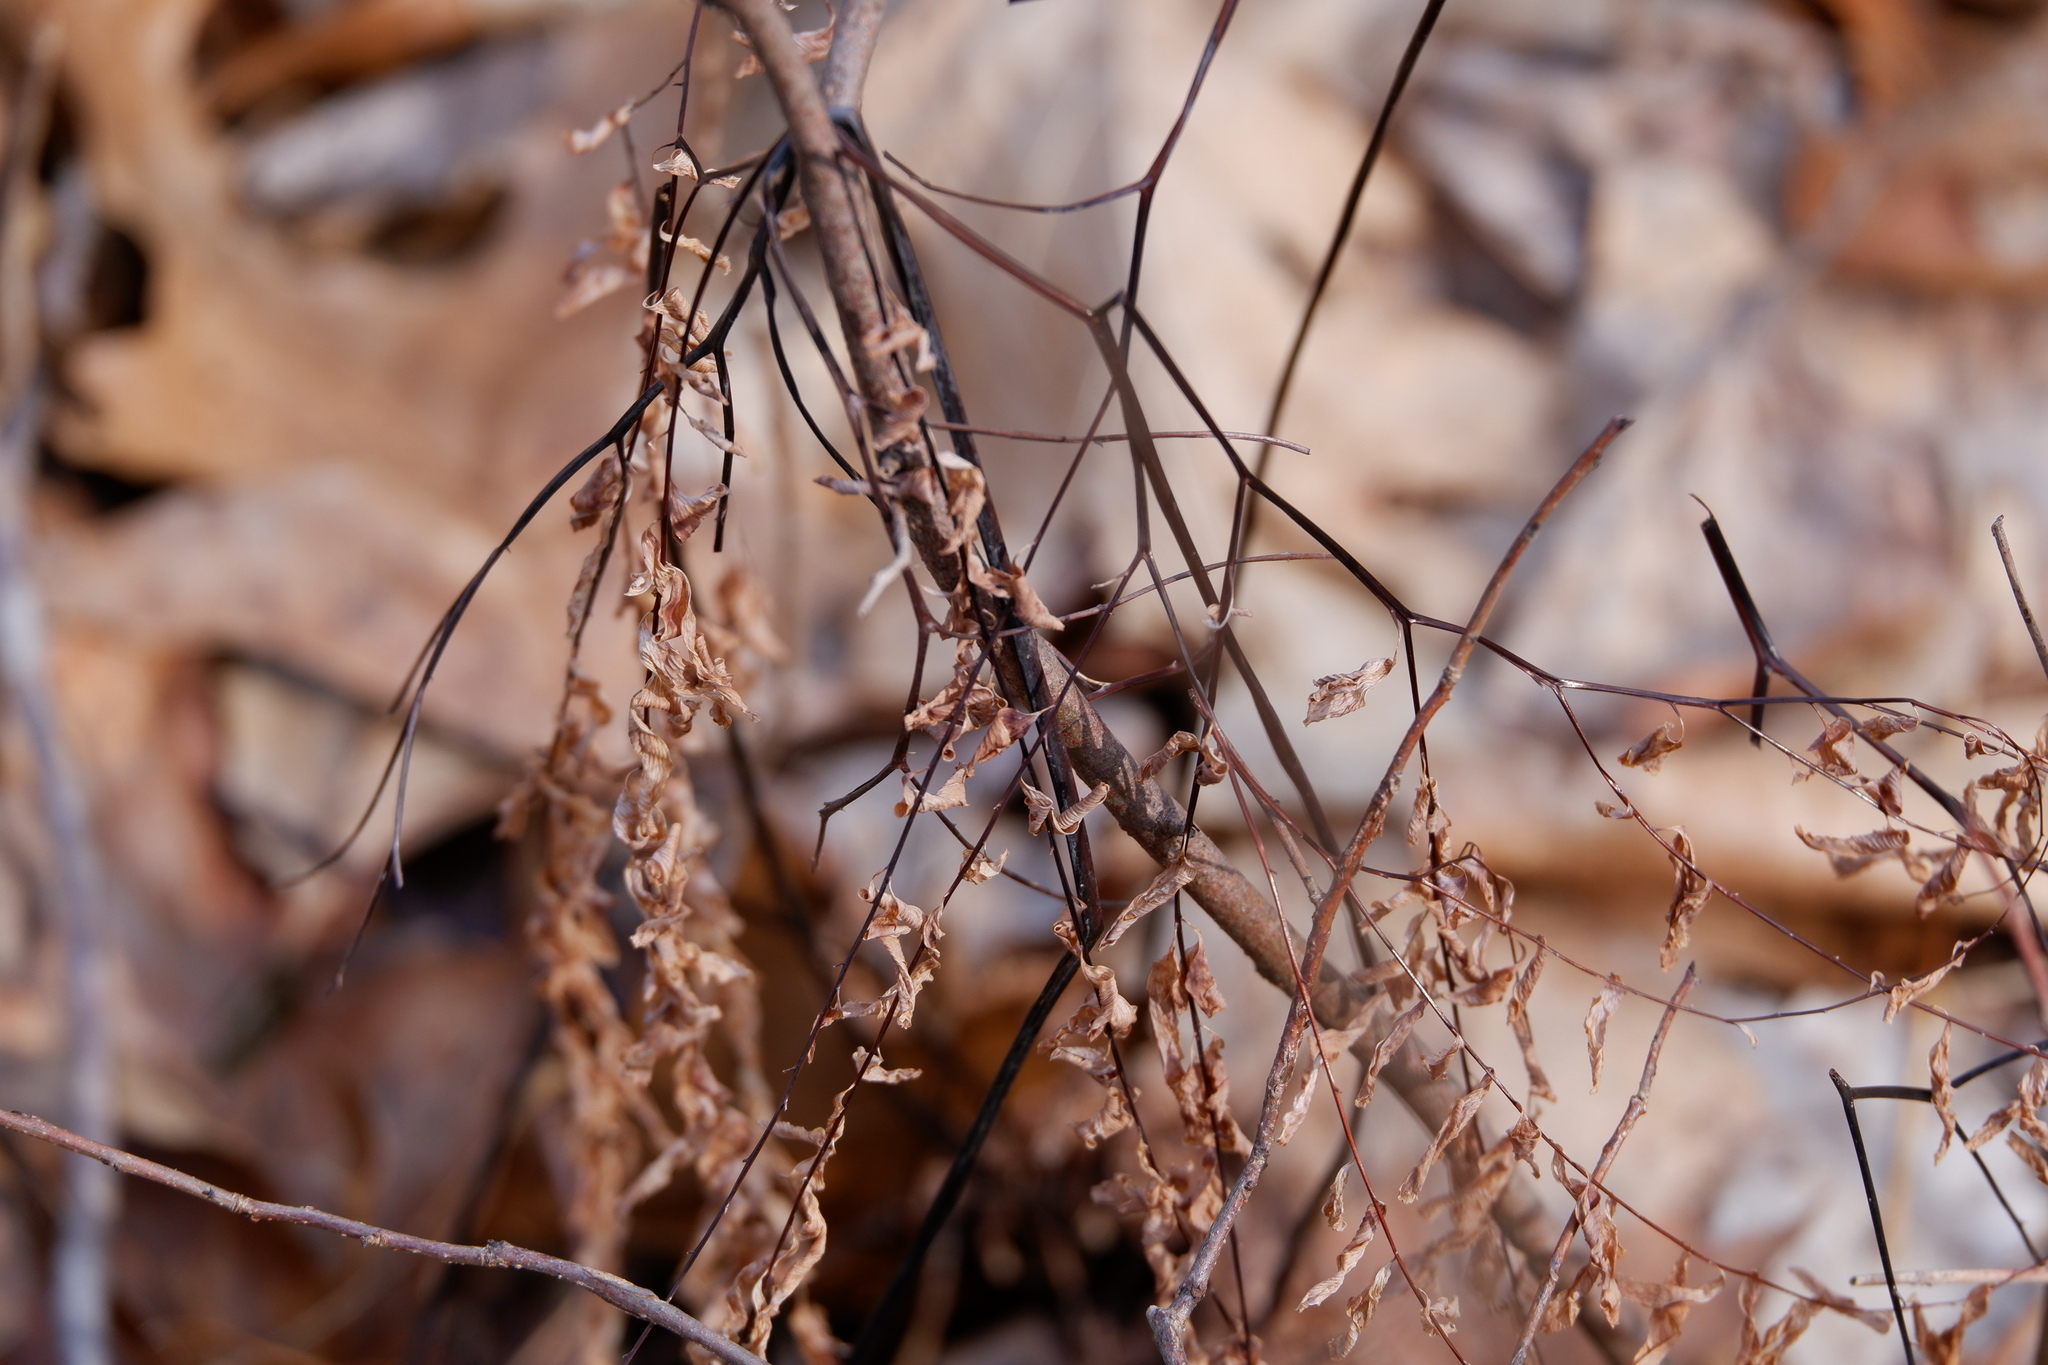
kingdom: Plantae
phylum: Tracheophyta
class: Polypodiopsida
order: Polypodiales
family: Pteridaceae
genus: Adiantum
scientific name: Adiantum pedatum
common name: Five-finger fern
